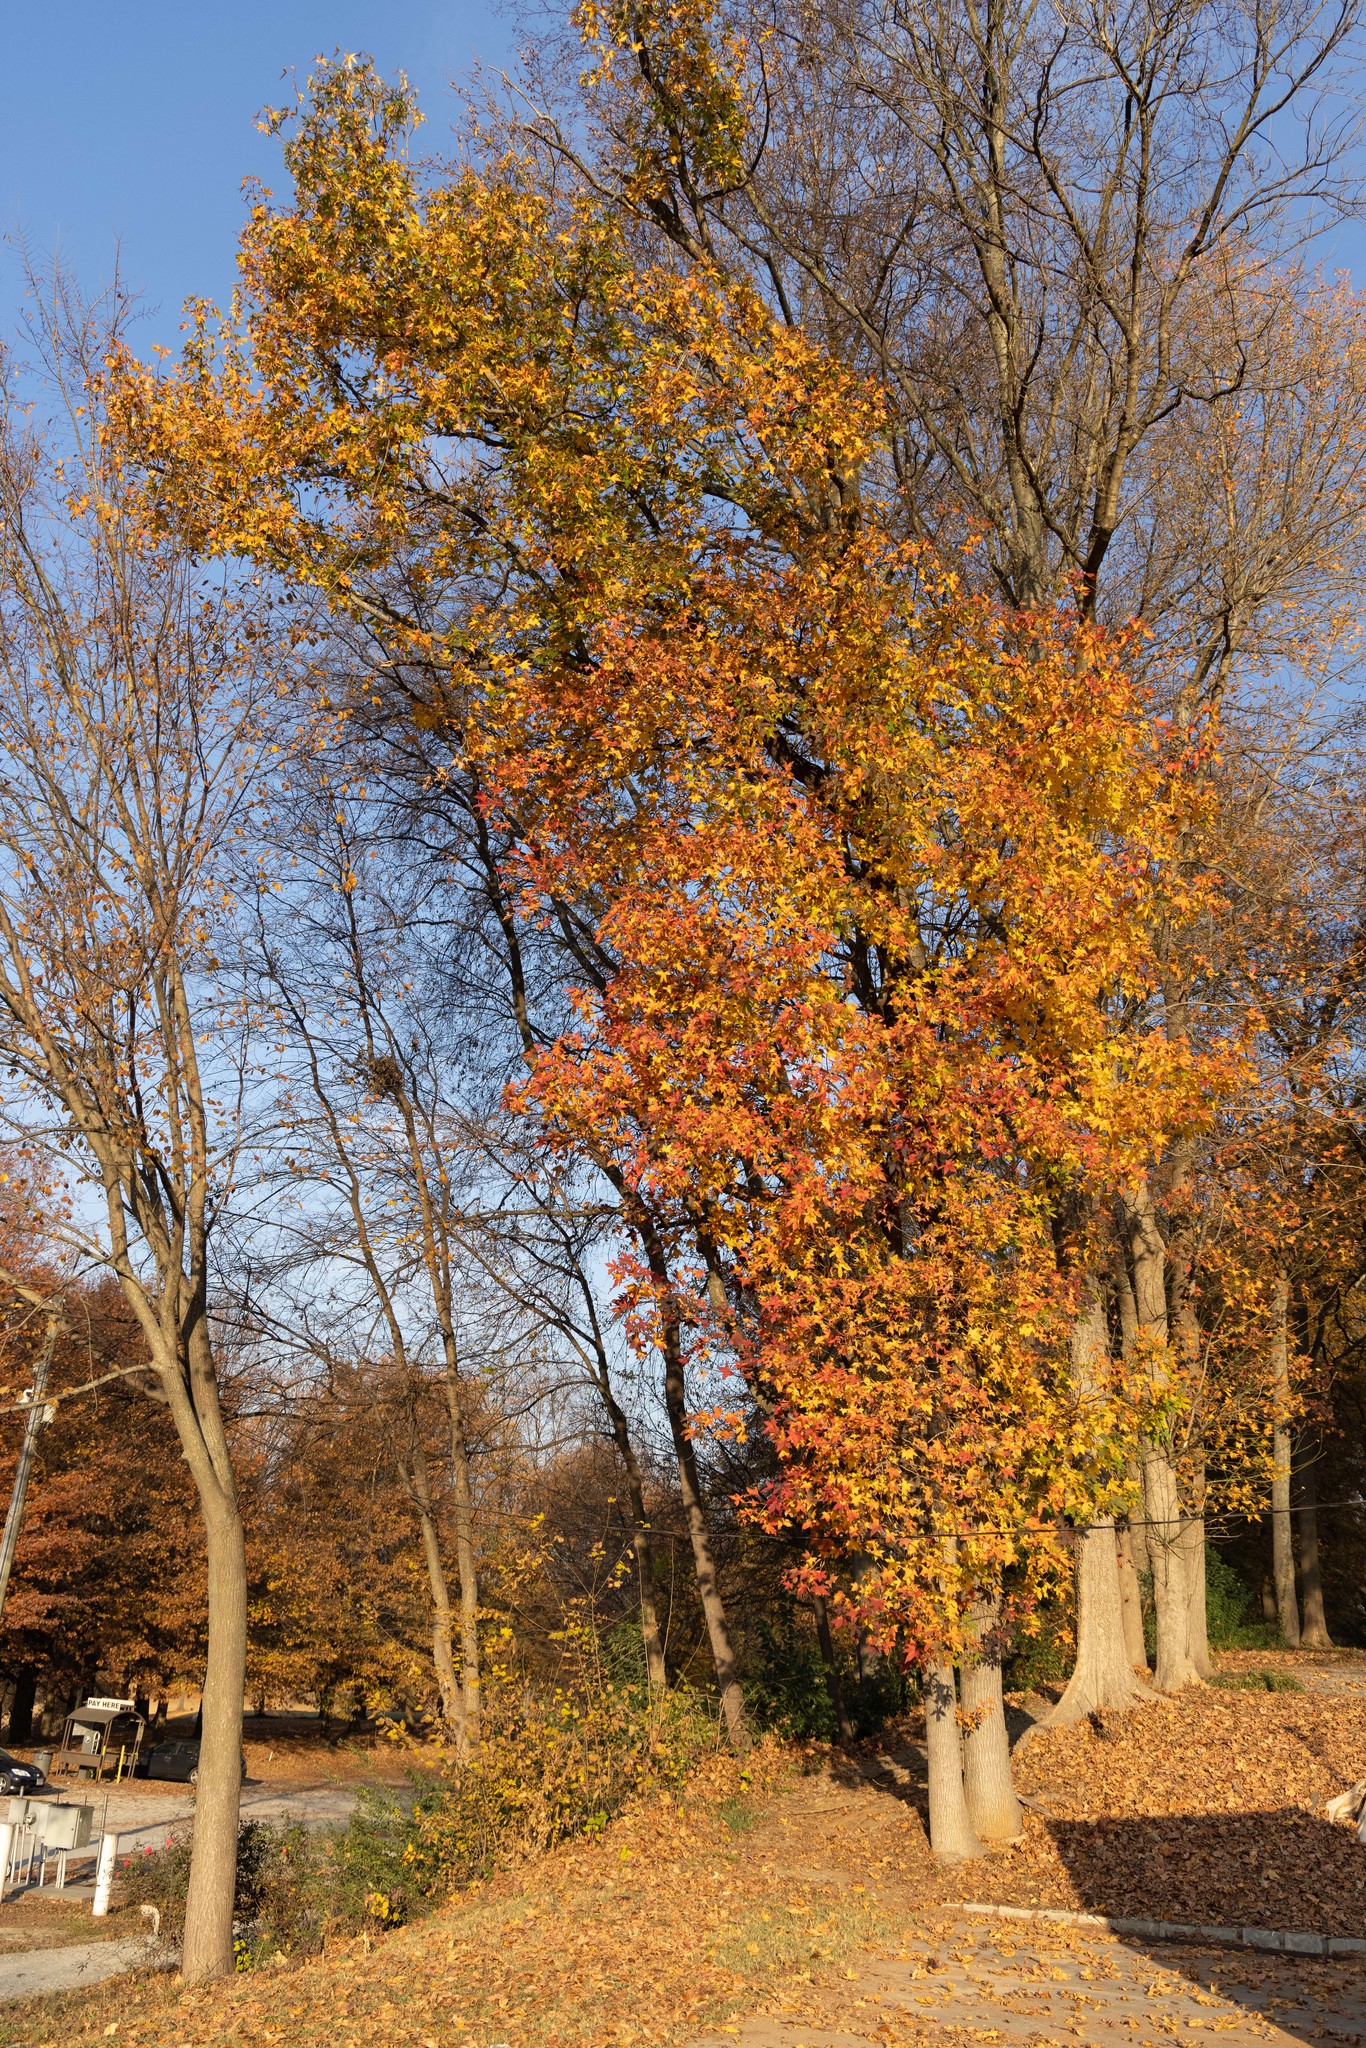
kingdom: Plantae
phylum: Tracheophyta
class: Magnoliopsida
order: Saxifragales
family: Altingiaceae
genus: Liquidambar
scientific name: Liquidambar styraciflua
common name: Sweet gum
